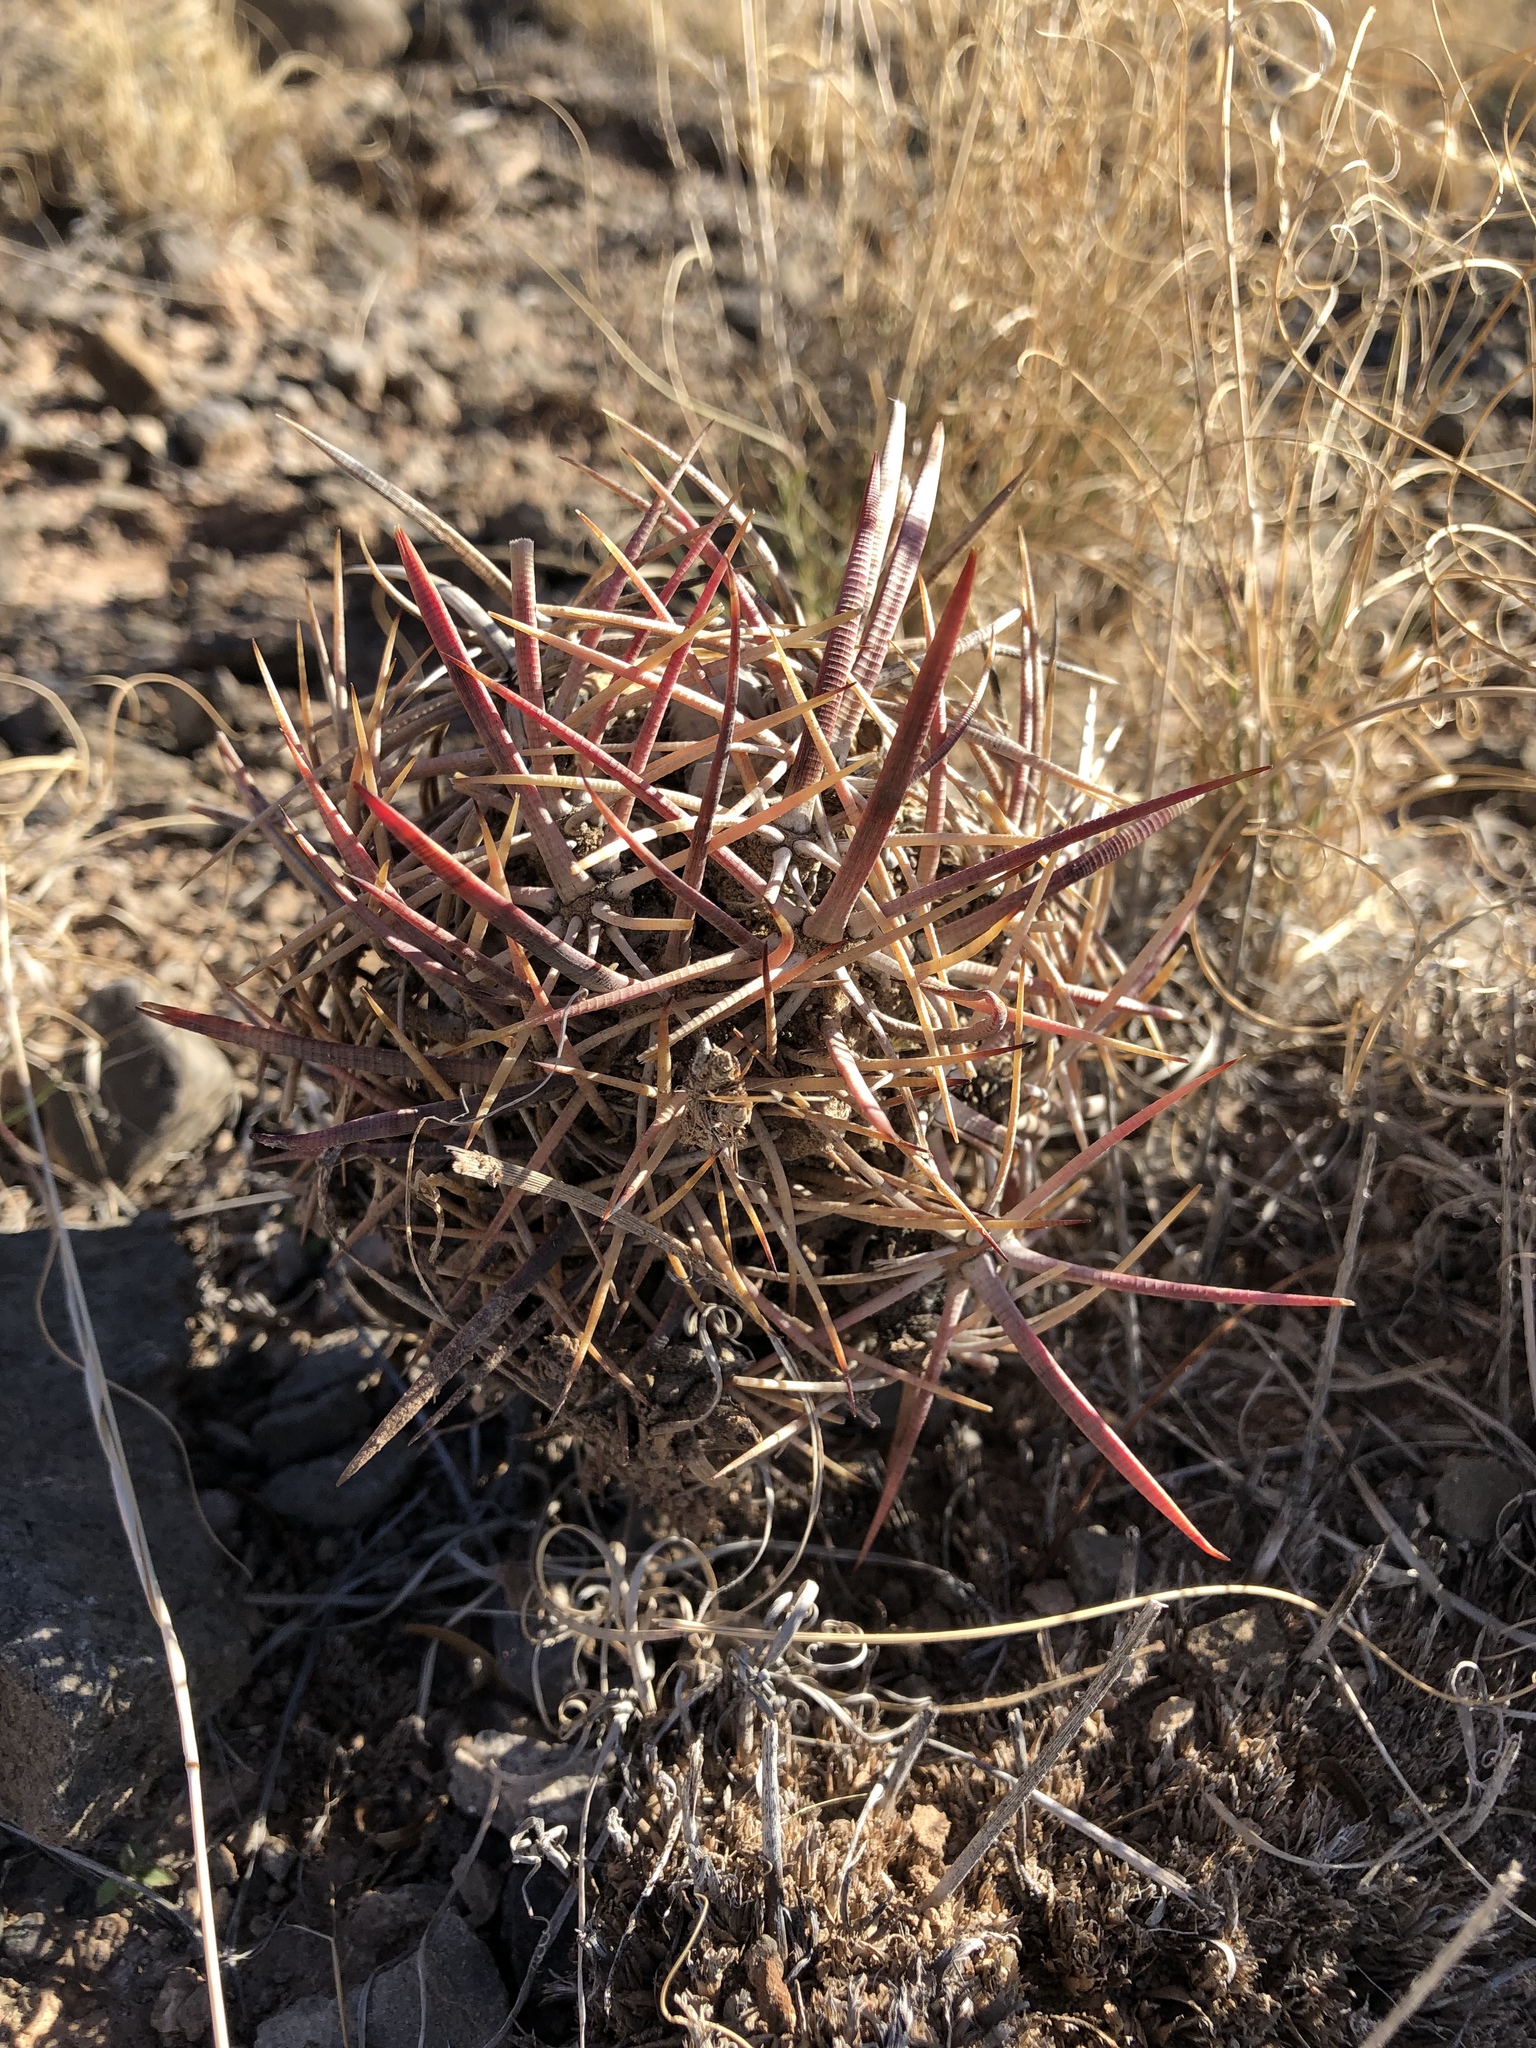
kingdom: Plantae
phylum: Tracheophyta
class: Magnoliopsida
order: Caryophyllales
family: Cactaceae
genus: Echinocactus
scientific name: Echinocactus horizonthalonius
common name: Devilshead
